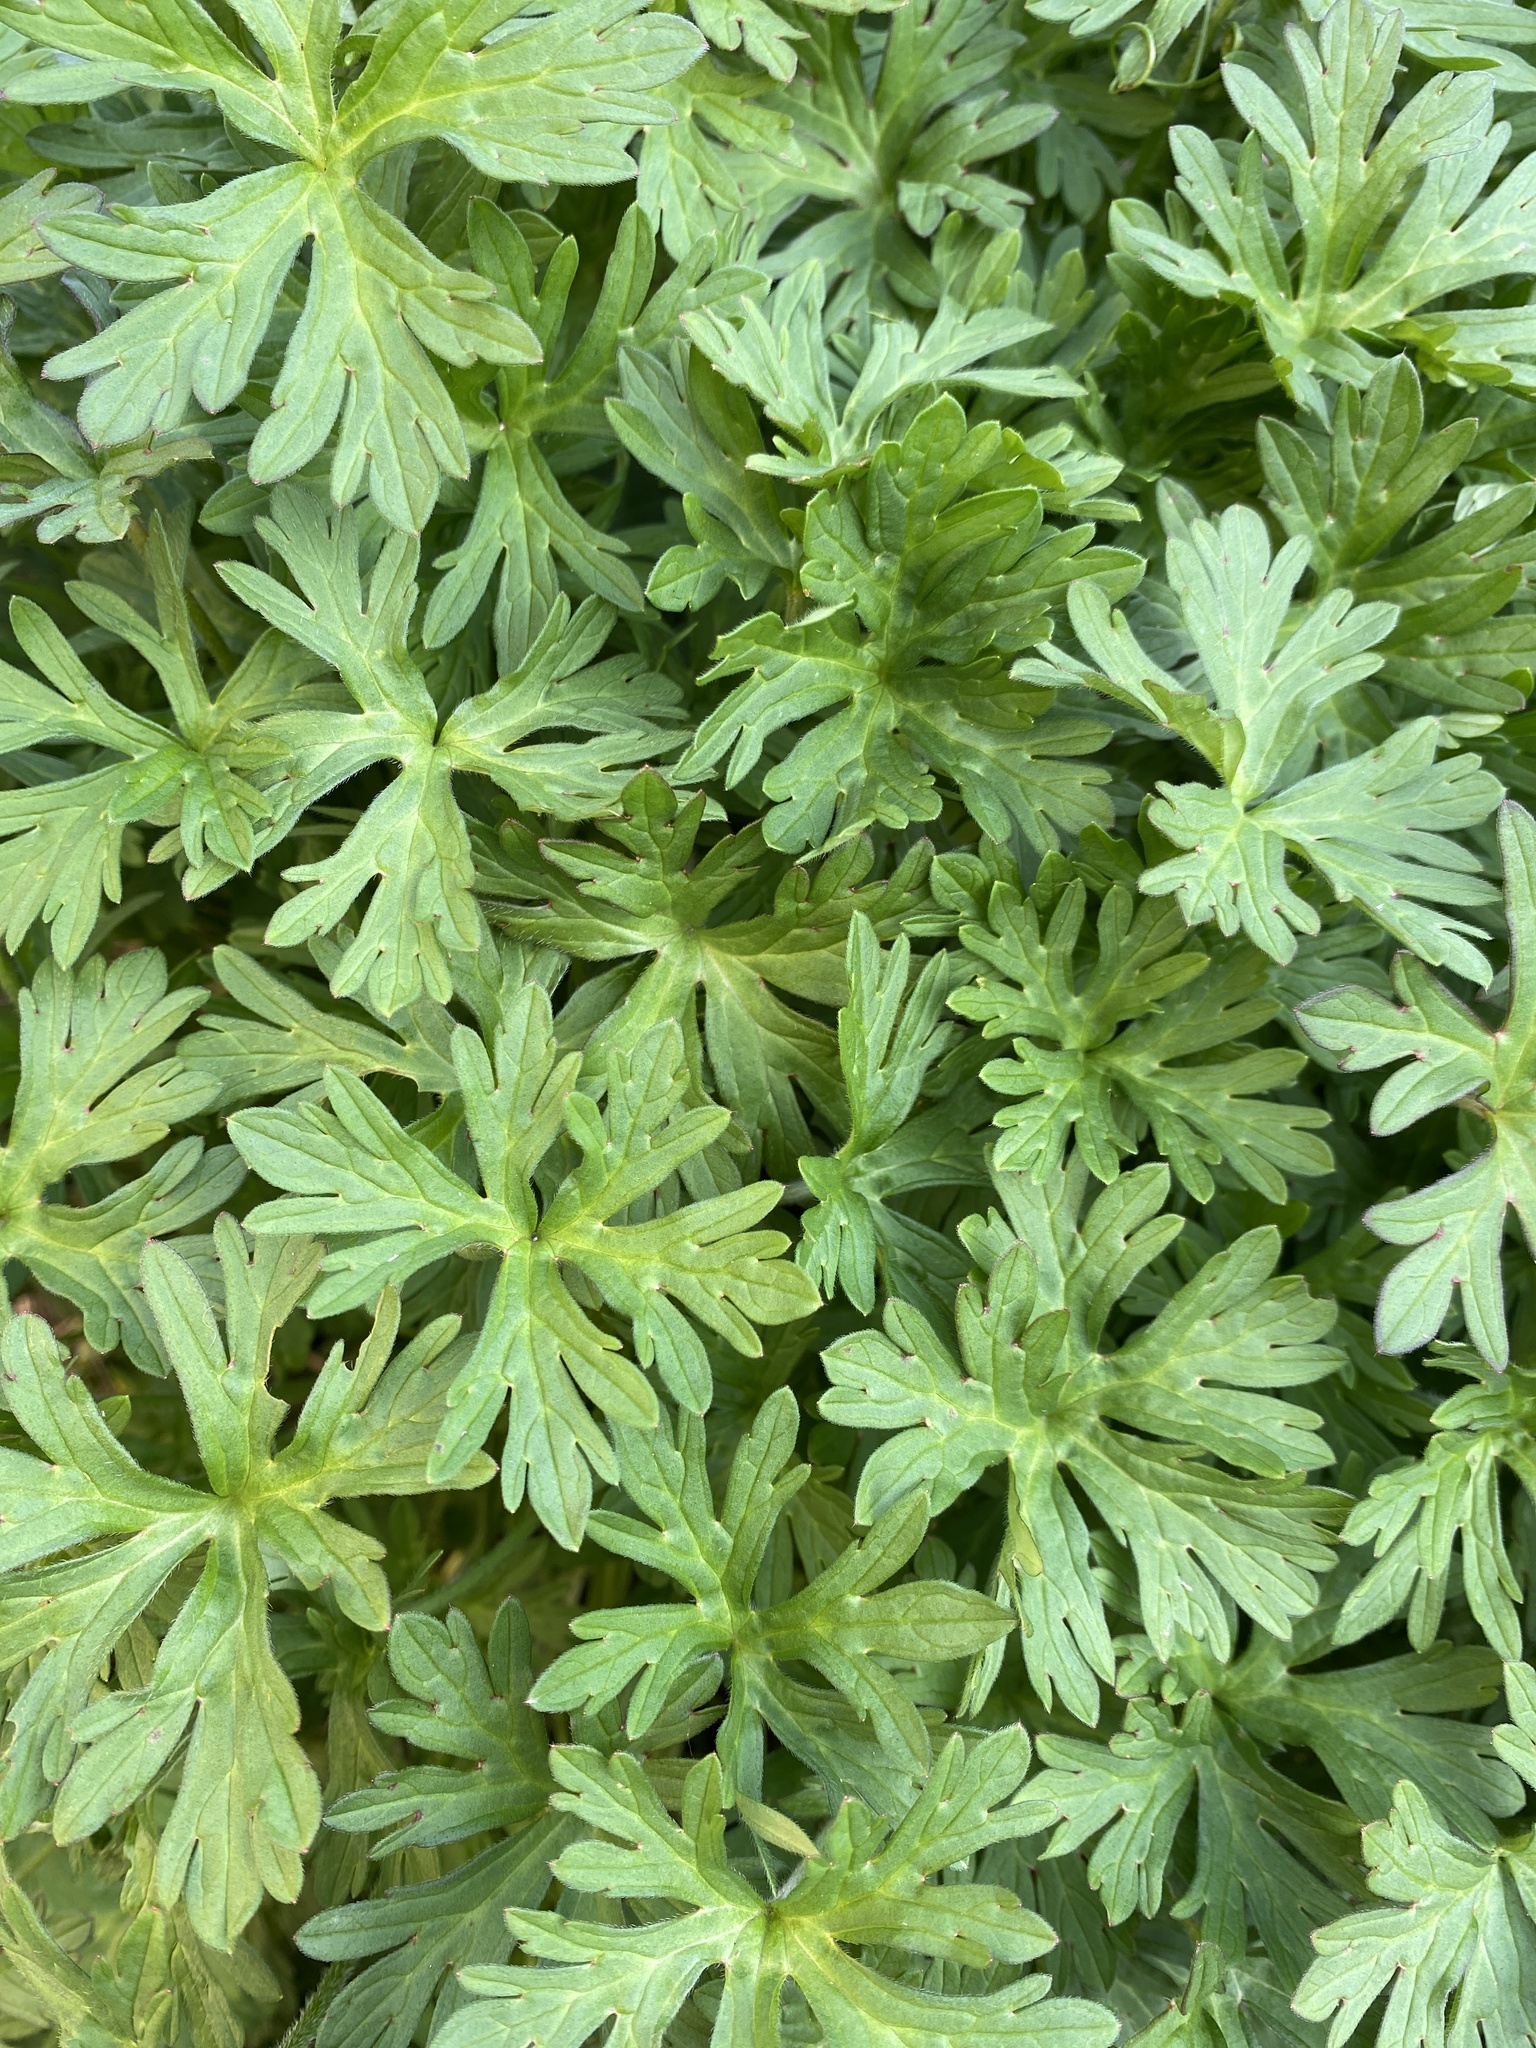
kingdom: Plantae
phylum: Tracheophyta
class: Magnoliopsida
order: Geraniales
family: Geraniaceae
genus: Geranium
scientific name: Geranium dissectum
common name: Cut-leaved crane's-bill
